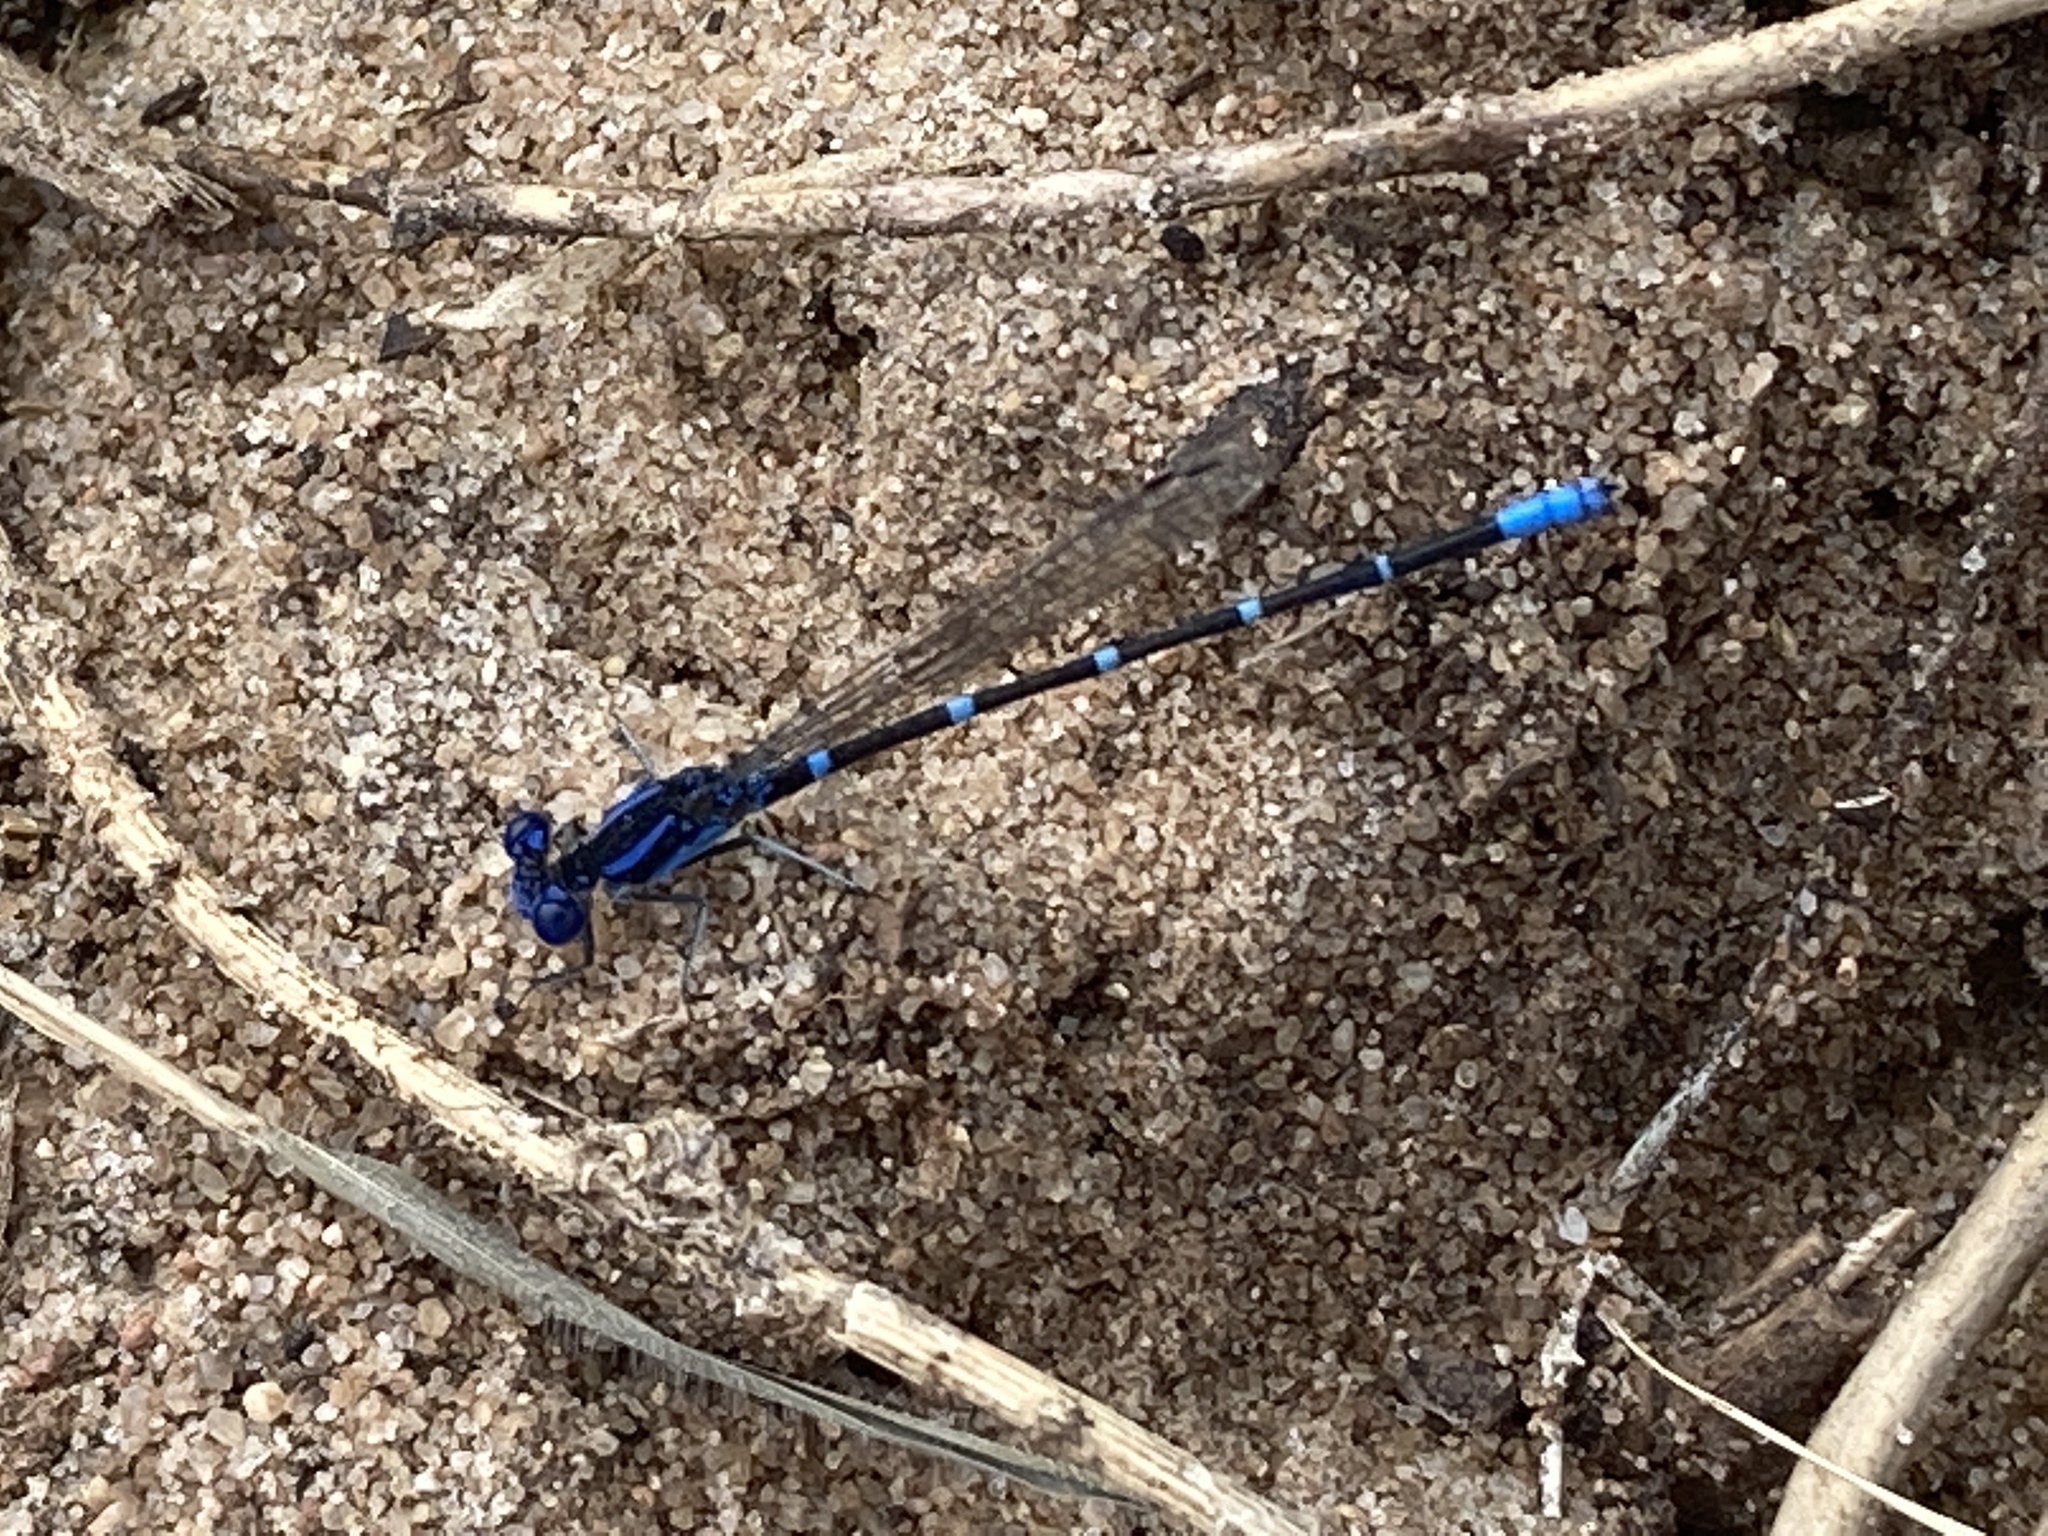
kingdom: Animalia
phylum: Arthropoda
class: Insecta
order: Odonata
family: Coenagrionidae
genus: Argia
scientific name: Argia sedula
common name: Blue-ringed dancer
